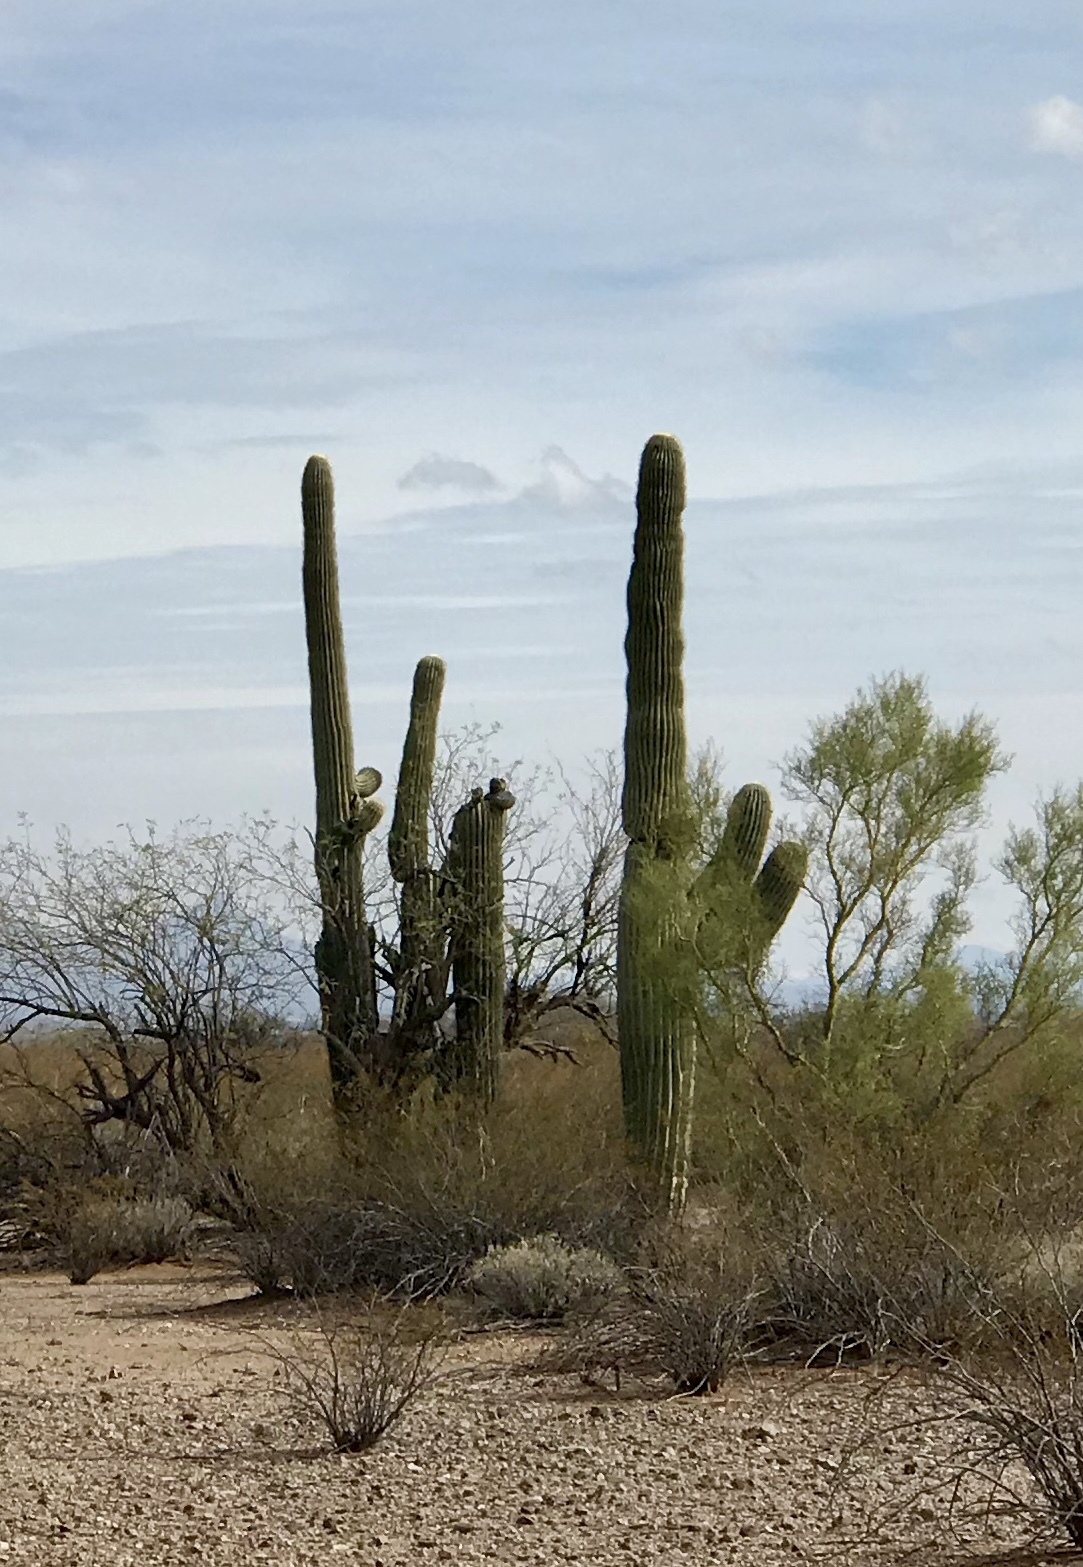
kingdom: Plantae
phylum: Tracheophyta
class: Magnoliopsida
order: Caryophyllales
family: Cactaceae
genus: Carnegiea
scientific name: Carnegiea gigantea
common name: Saguaro
